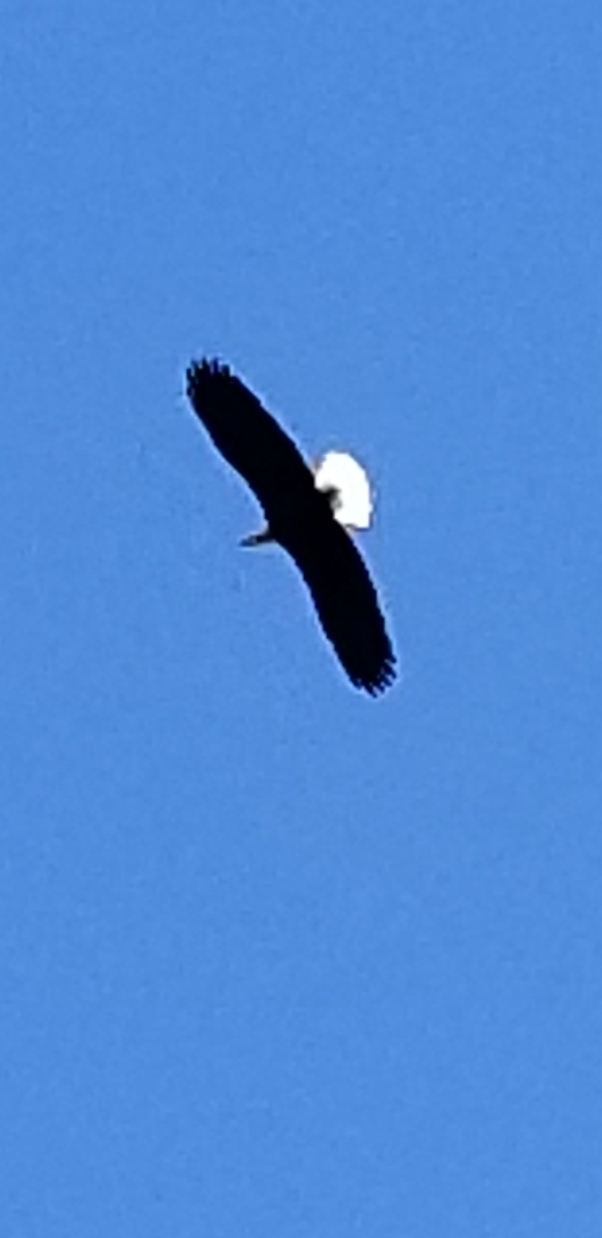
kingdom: Animalia
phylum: Chordata
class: Aves
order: Accipitriformes
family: Accipitridae
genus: Haliaeetus
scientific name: Haliaeetus leucocephalus
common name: Bald eagle
